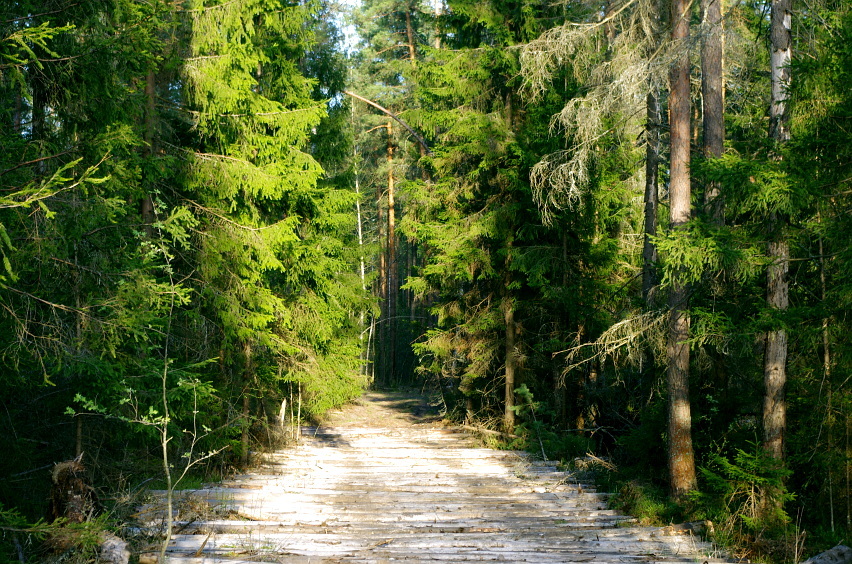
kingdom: Plantae
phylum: Tracheophyta
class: Pinopsida
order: Pinales
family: Pinaceae
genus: Picea
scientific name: Picea abies
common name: Norway spruce
